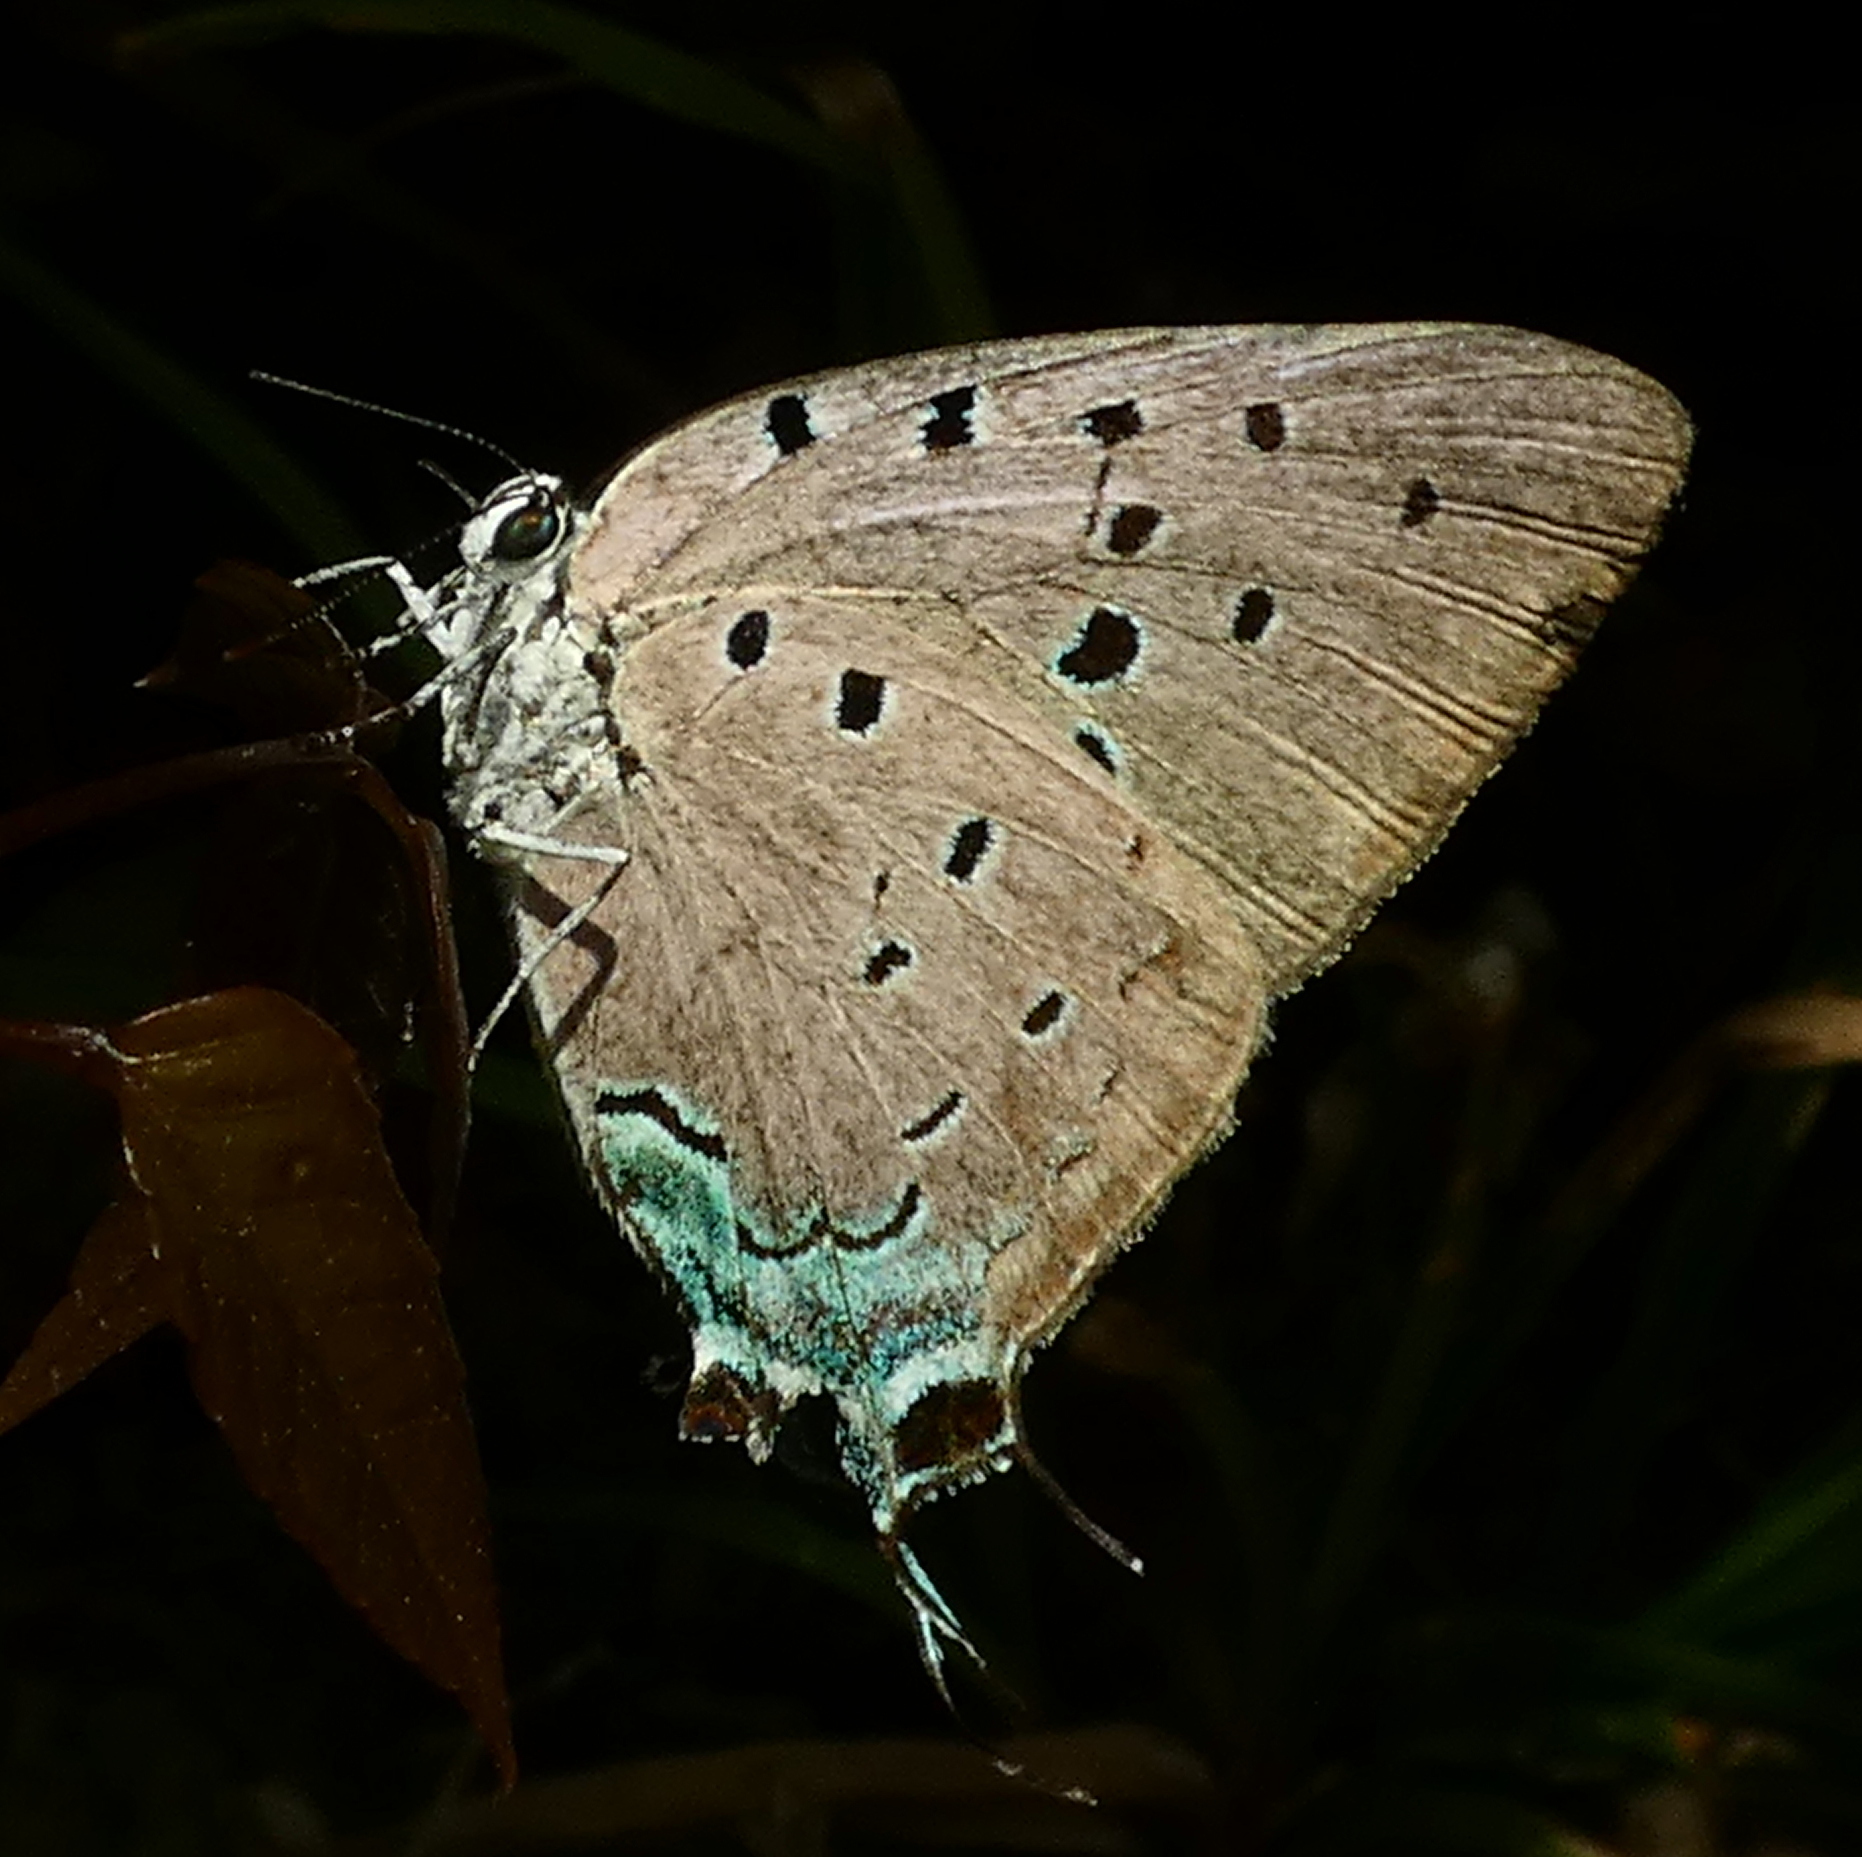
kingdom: Animalia
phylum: Arthropoda
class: Insecta
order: Lepidoptera
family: Lycaenidae
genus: Pseudolycaena
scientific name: Pseudolycaena marsyas
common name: Marsyas hairstreak
